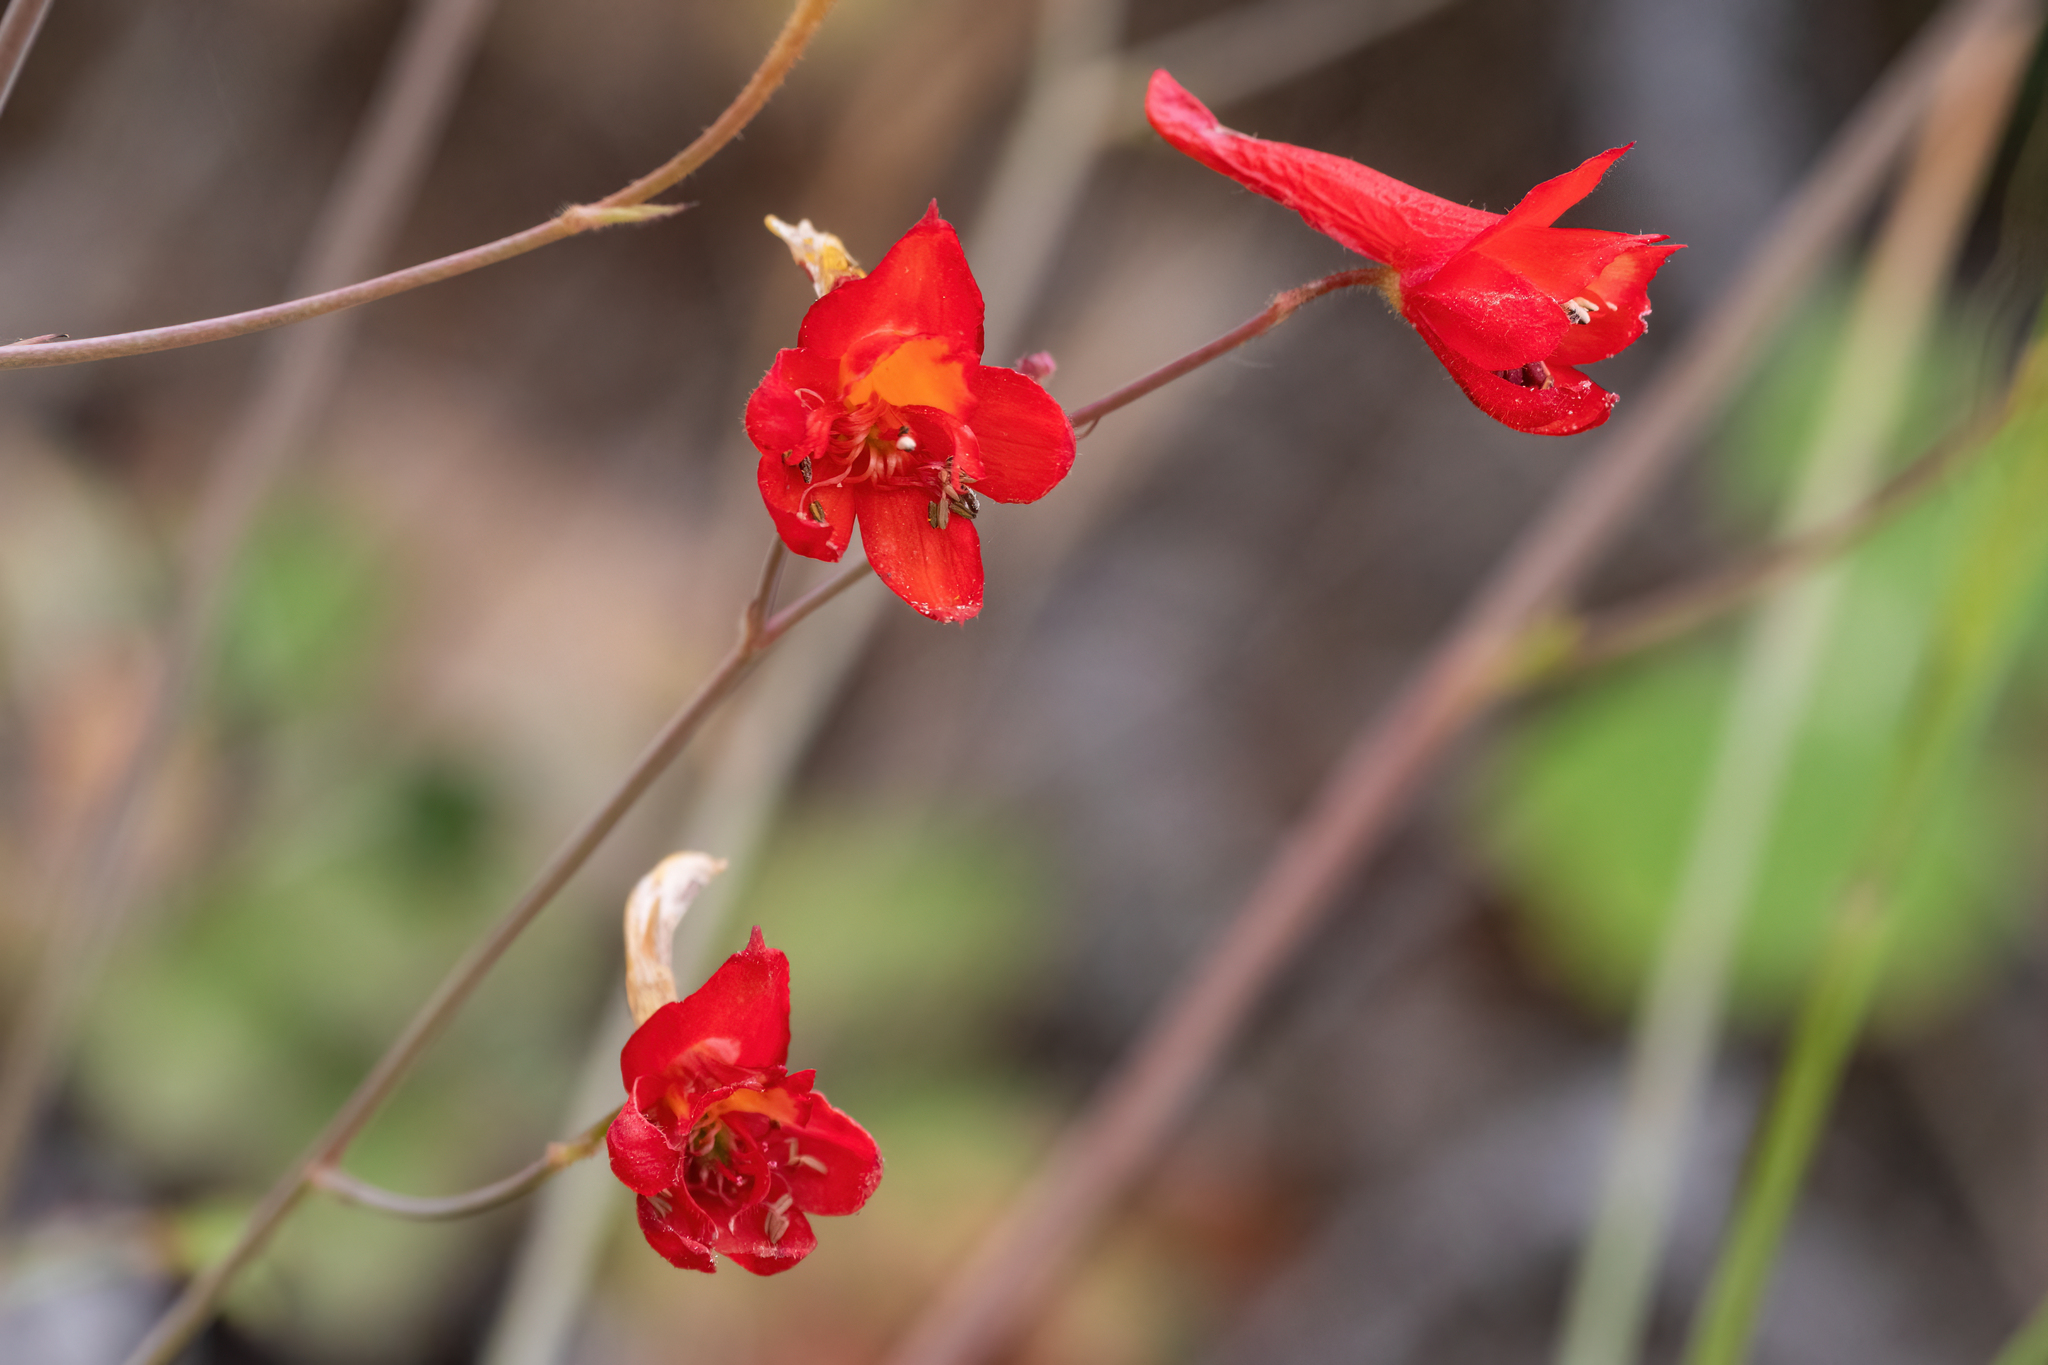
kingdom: Plantae
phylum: Tracheophyta
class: Magnoliopsida
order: Ranunculales
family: Ranunculaceae
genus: Delphinium
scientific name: Delphinium nudicaule
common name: Red larkspur
